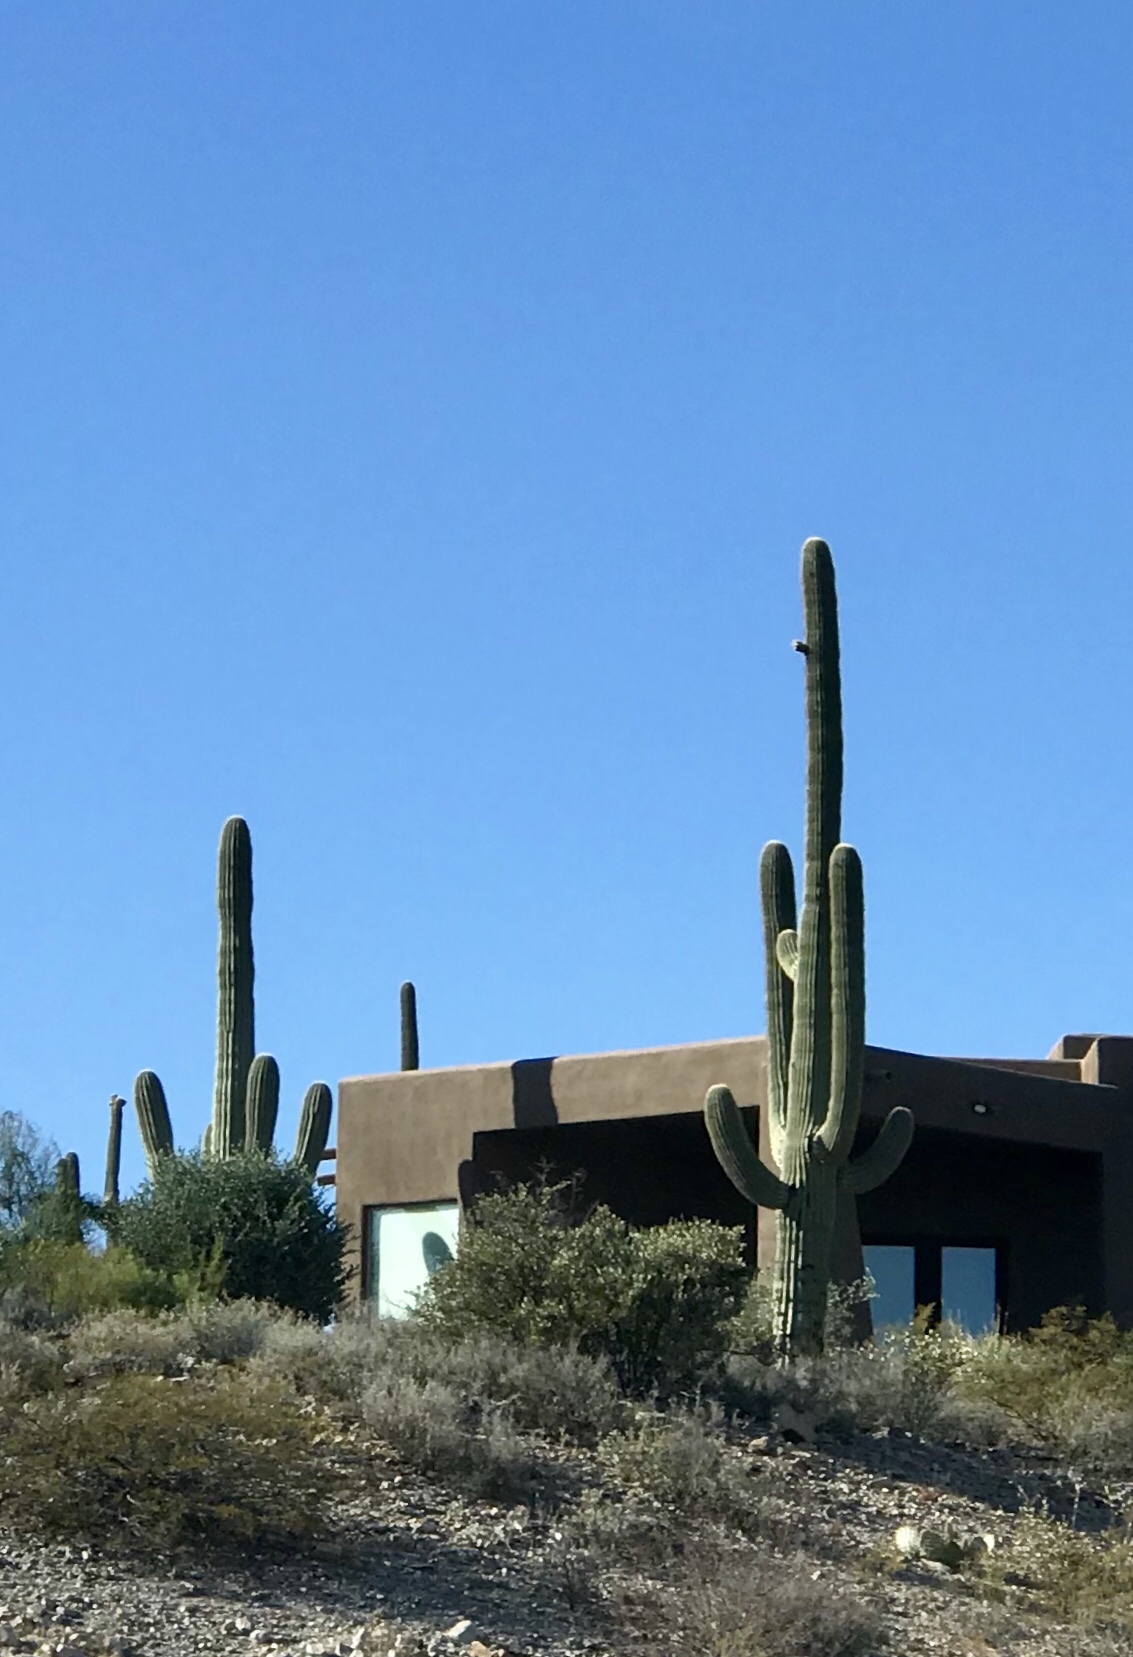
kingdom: Plantae
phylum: Tracheophyta
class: Magnoliopsida
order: Caryophyllales
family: Cactaceae
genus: Carnegiea
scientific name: Carnegiea gigantea
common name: Saguaro
